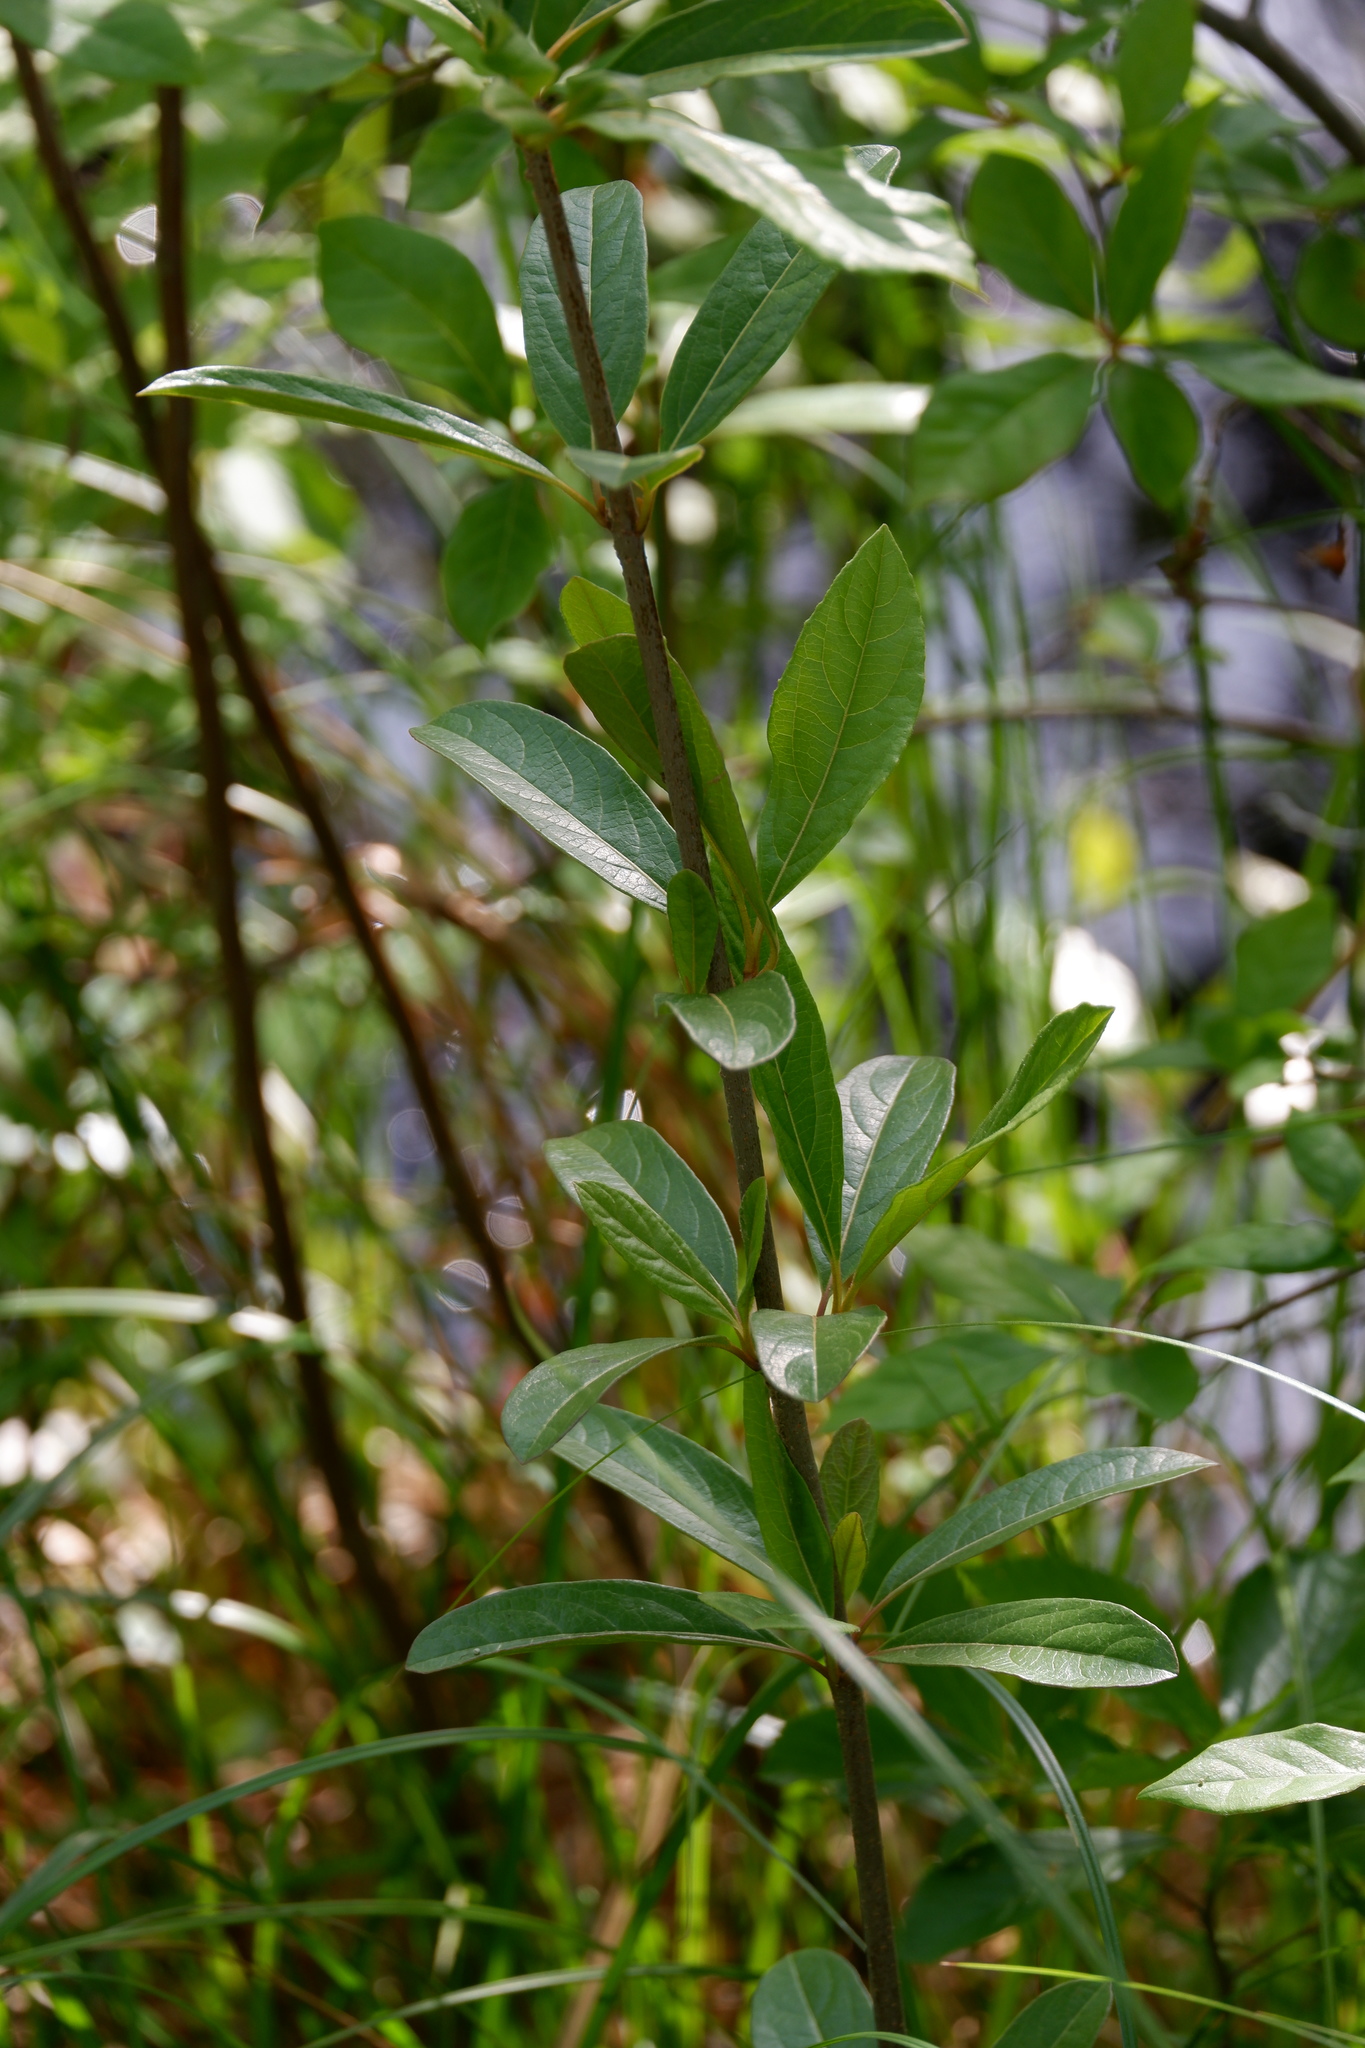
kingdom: Plantae
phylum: Tracheophyta
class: Magnoliopsida
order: Dipsacales
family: Viburnaceae
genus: Viburnum
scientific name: Viburnum nudum
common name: Possum haw
